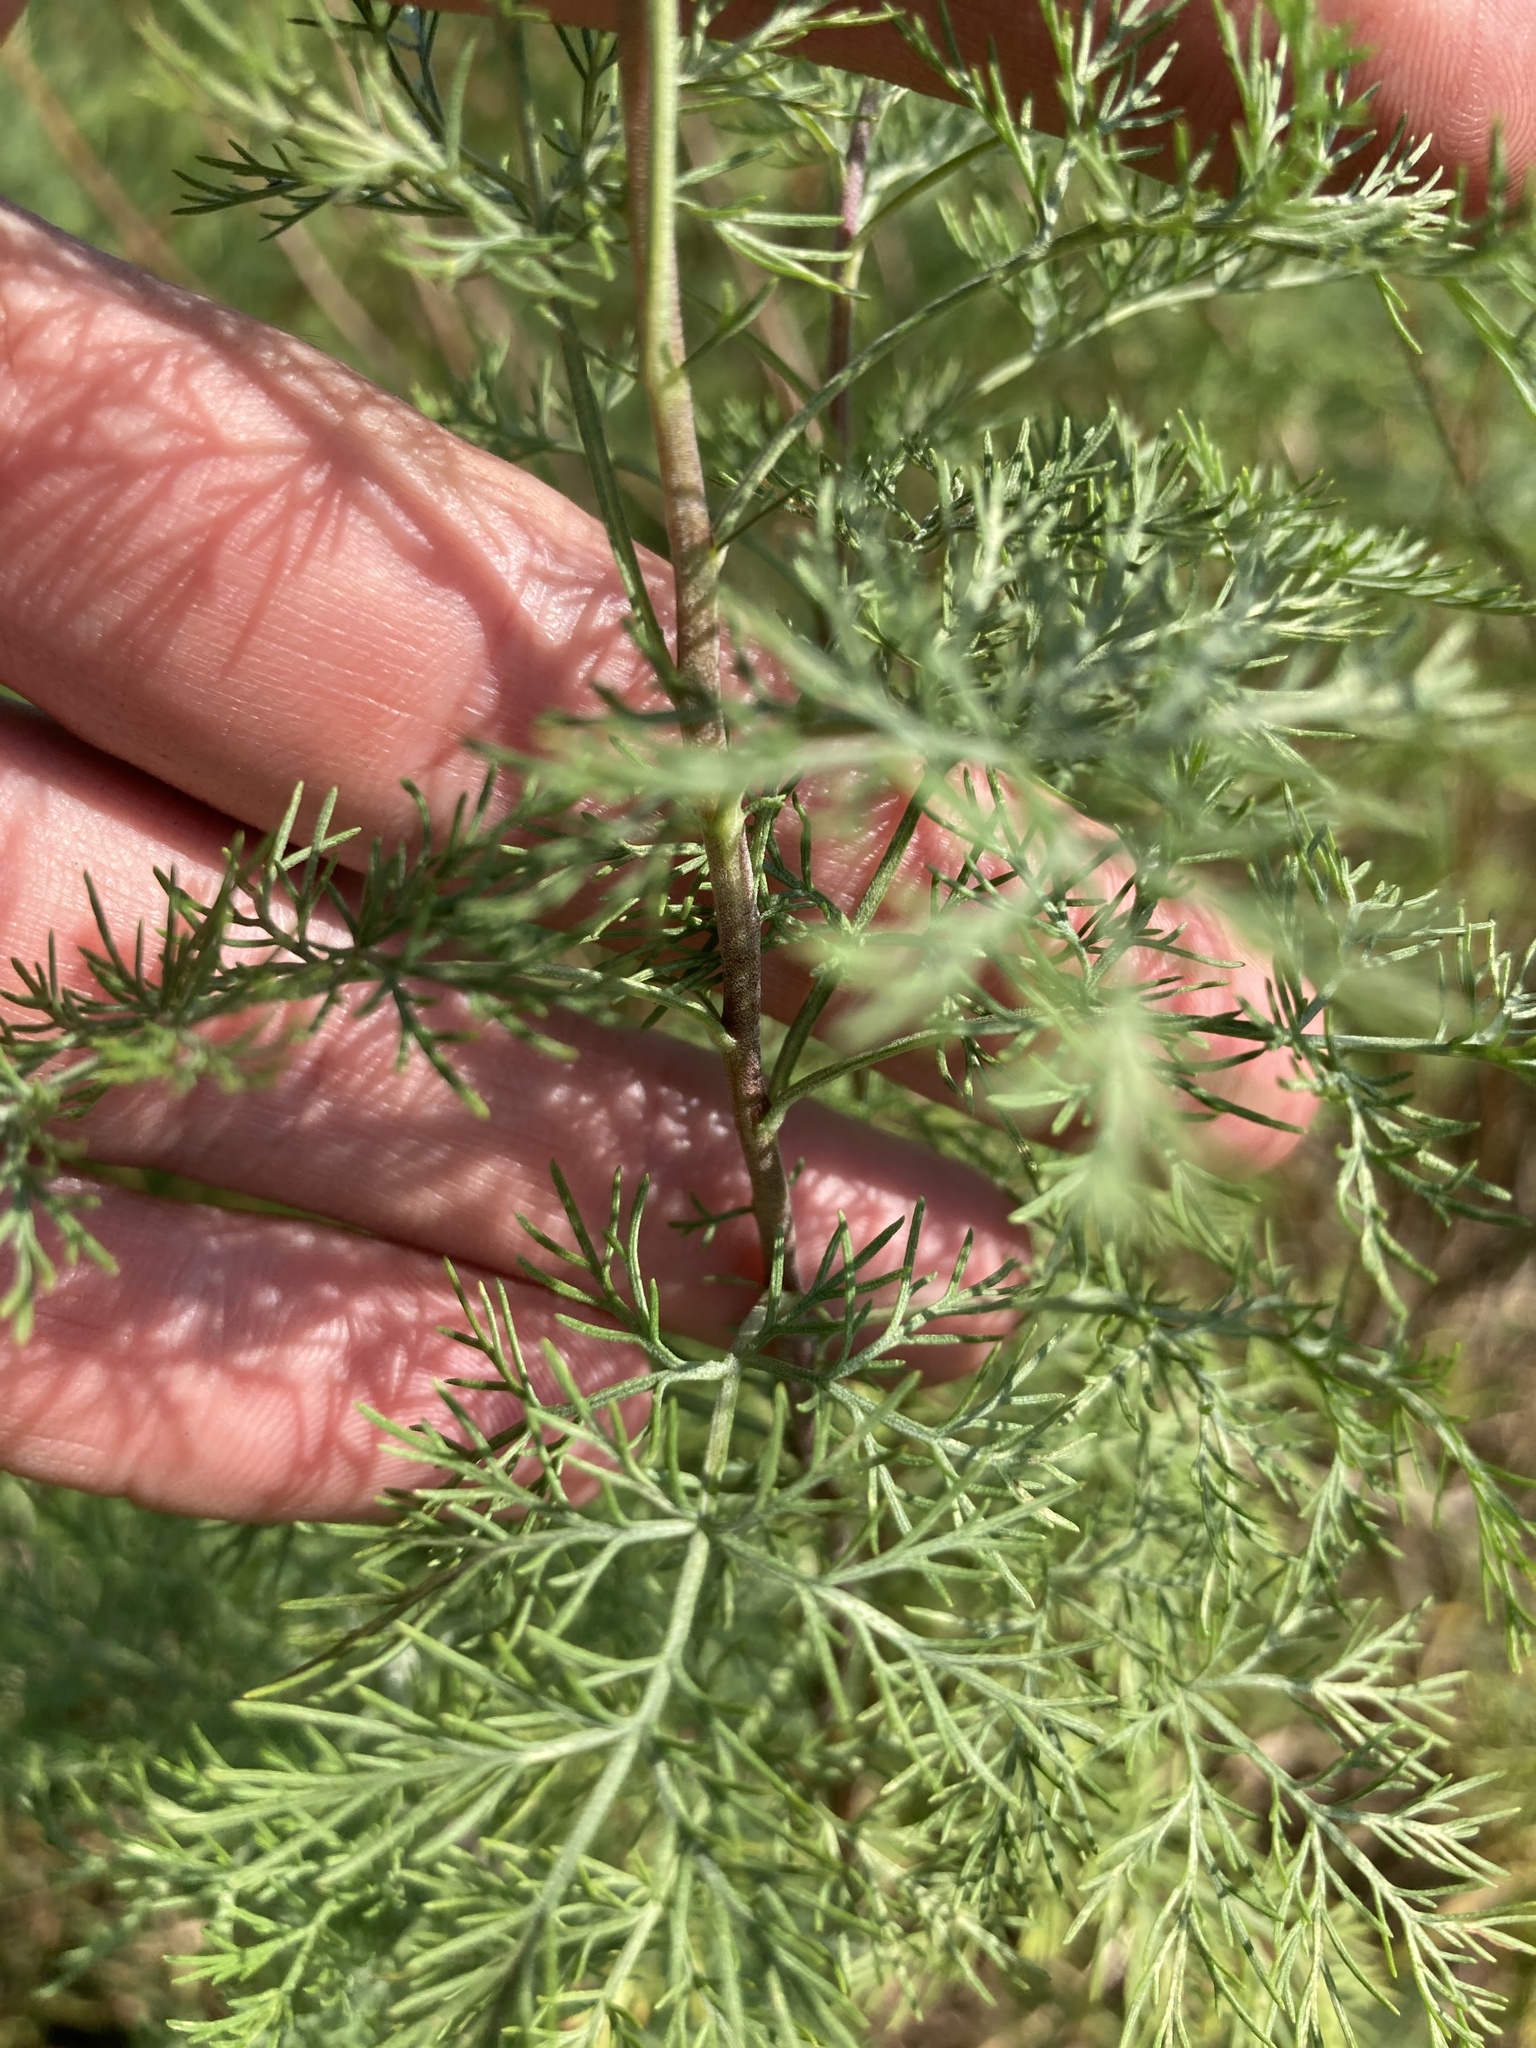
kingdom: Plantae
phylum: Tracheophyta
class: Magnoliopsida
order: Asterales
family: Asteraceae
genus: Artemisia
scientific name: Artemisia abrotanum
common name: Southernwood
